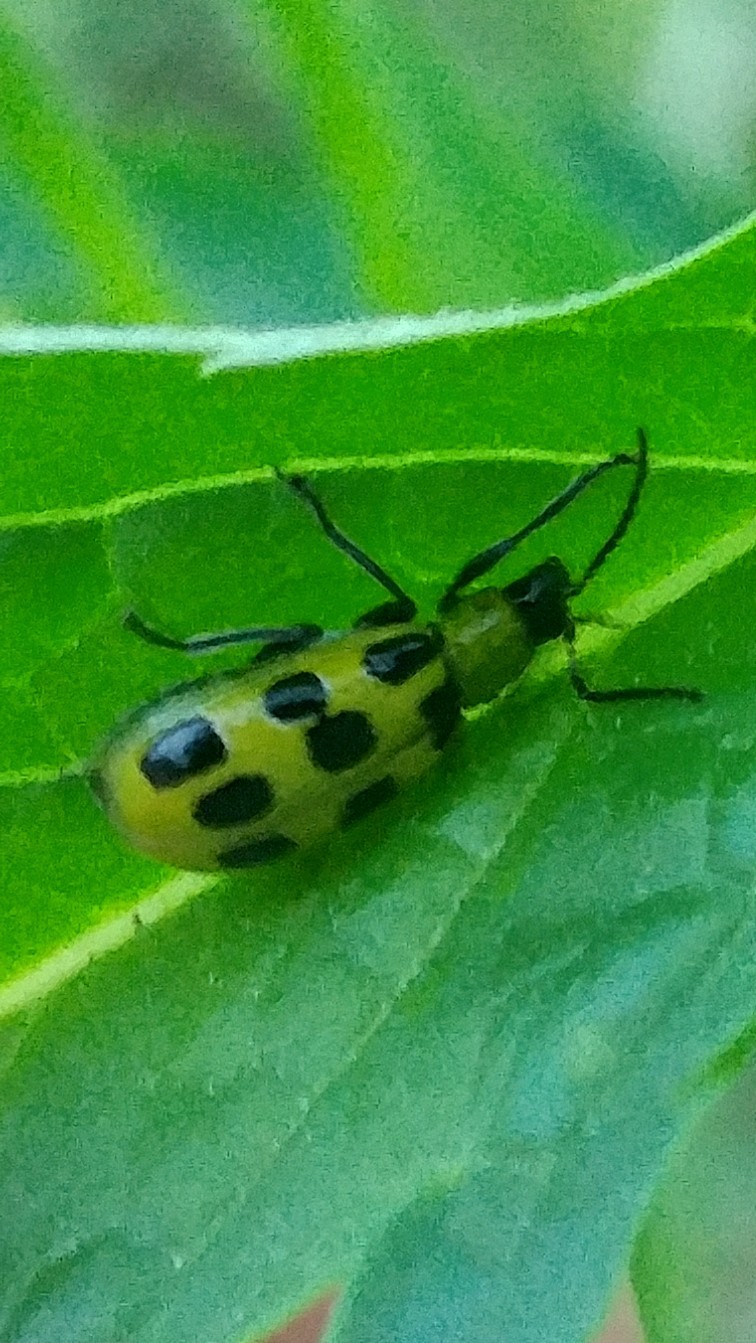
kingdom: Animalia
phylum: Arthropoda
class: Insecta
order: Coleoptera
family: Chrysomelidae
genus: Diabrotica
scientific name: Diabrotica undecimpunctata
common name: Spotted cucumber beetle
